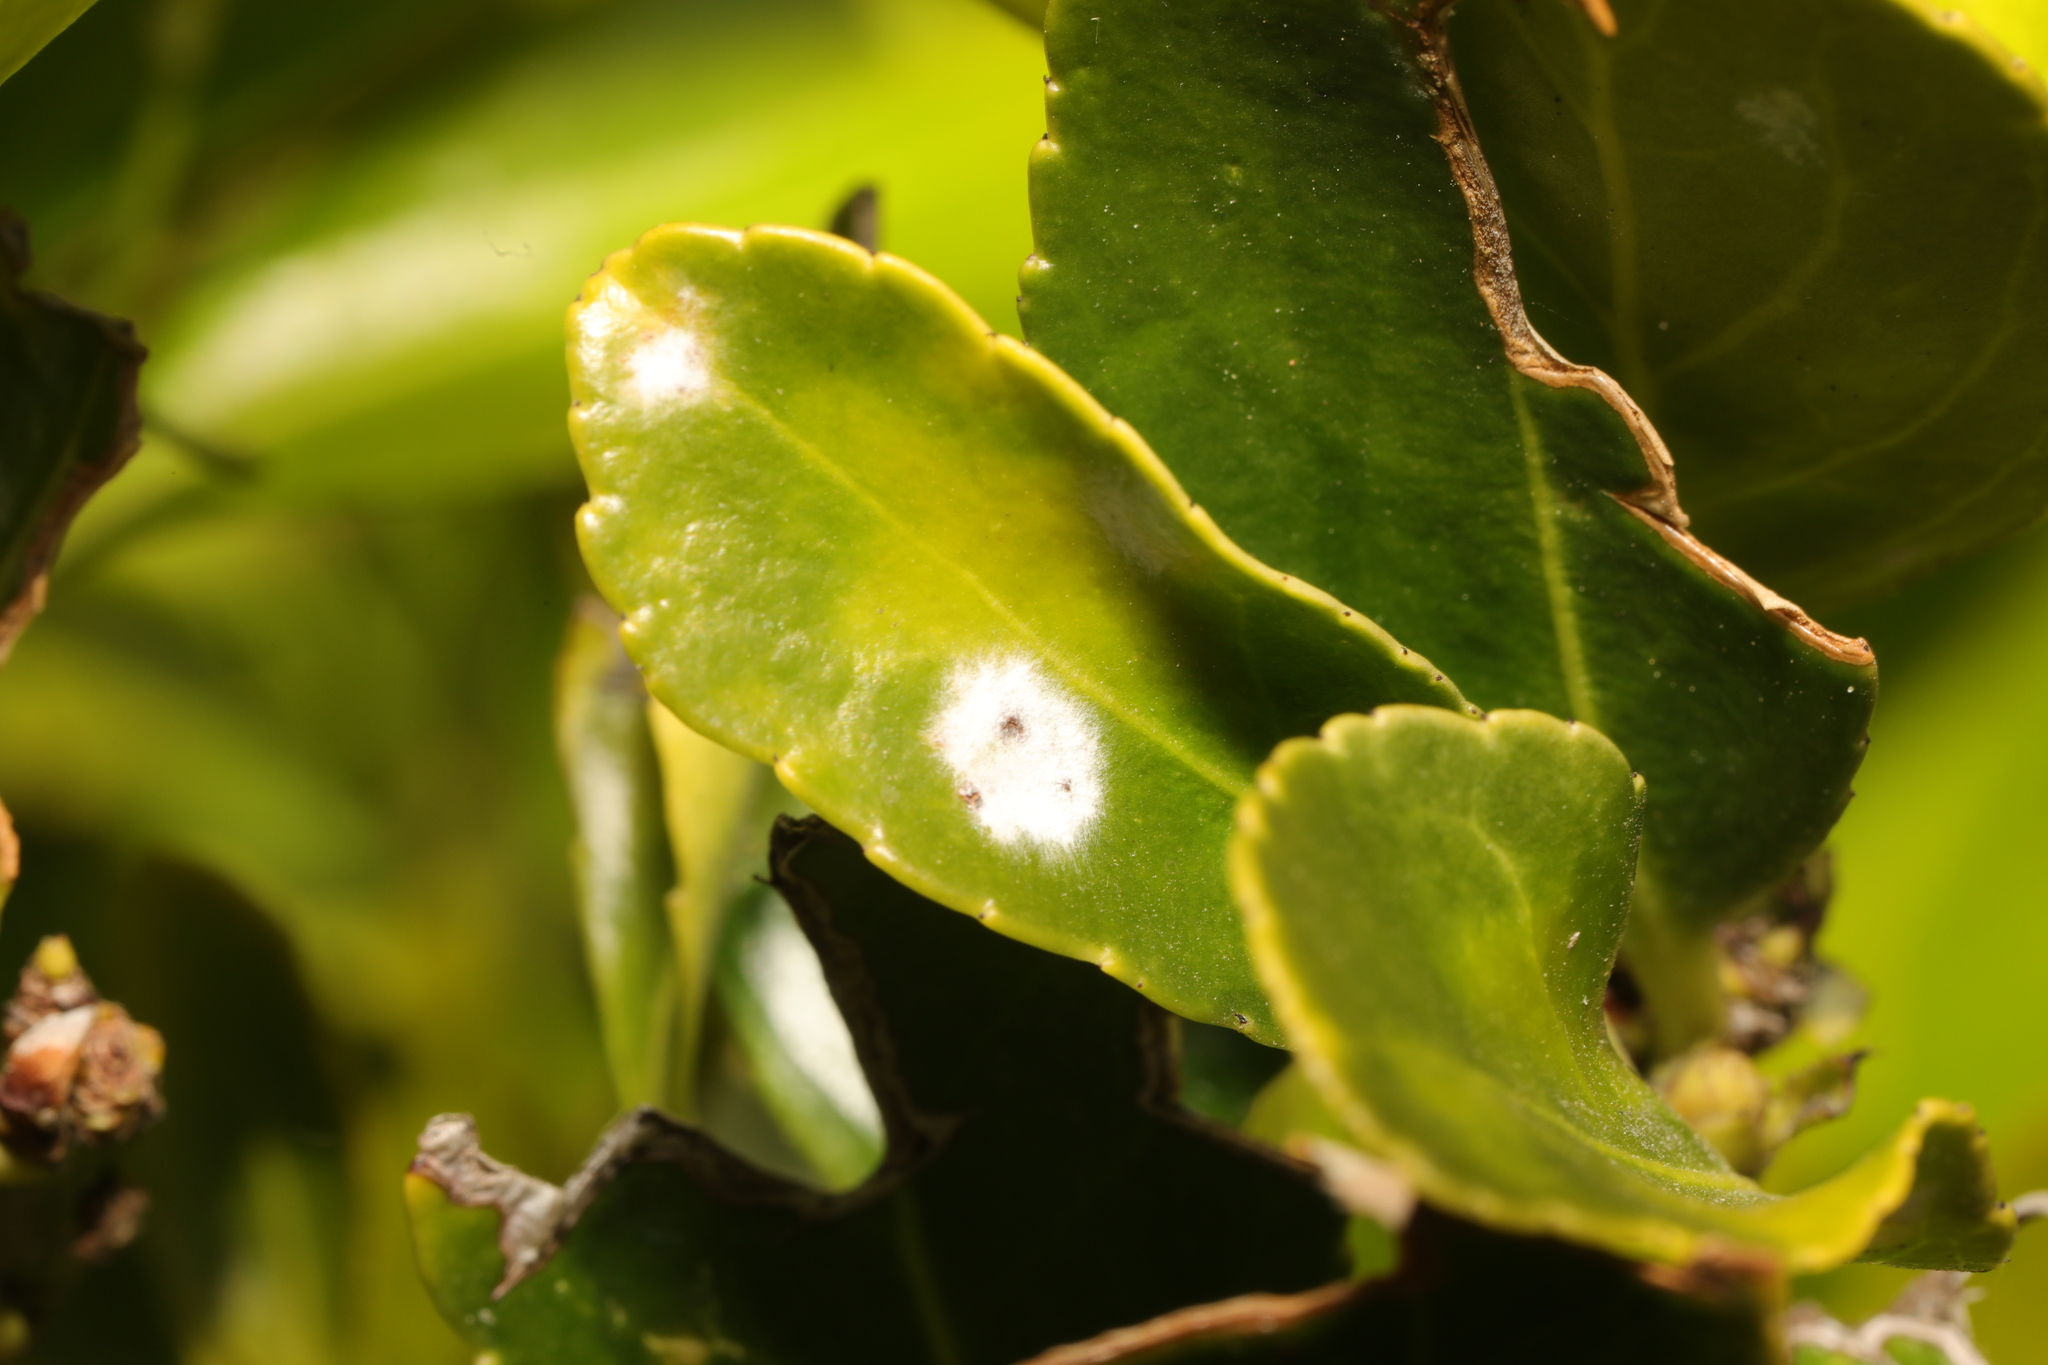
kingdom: Fungi
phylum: Ascomycota
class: Leotiomycetes
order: Helotiales
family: Erysiphaceae
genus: Erysiphe
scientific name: Erysiphe euonymicola
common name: Spindletree mildew
